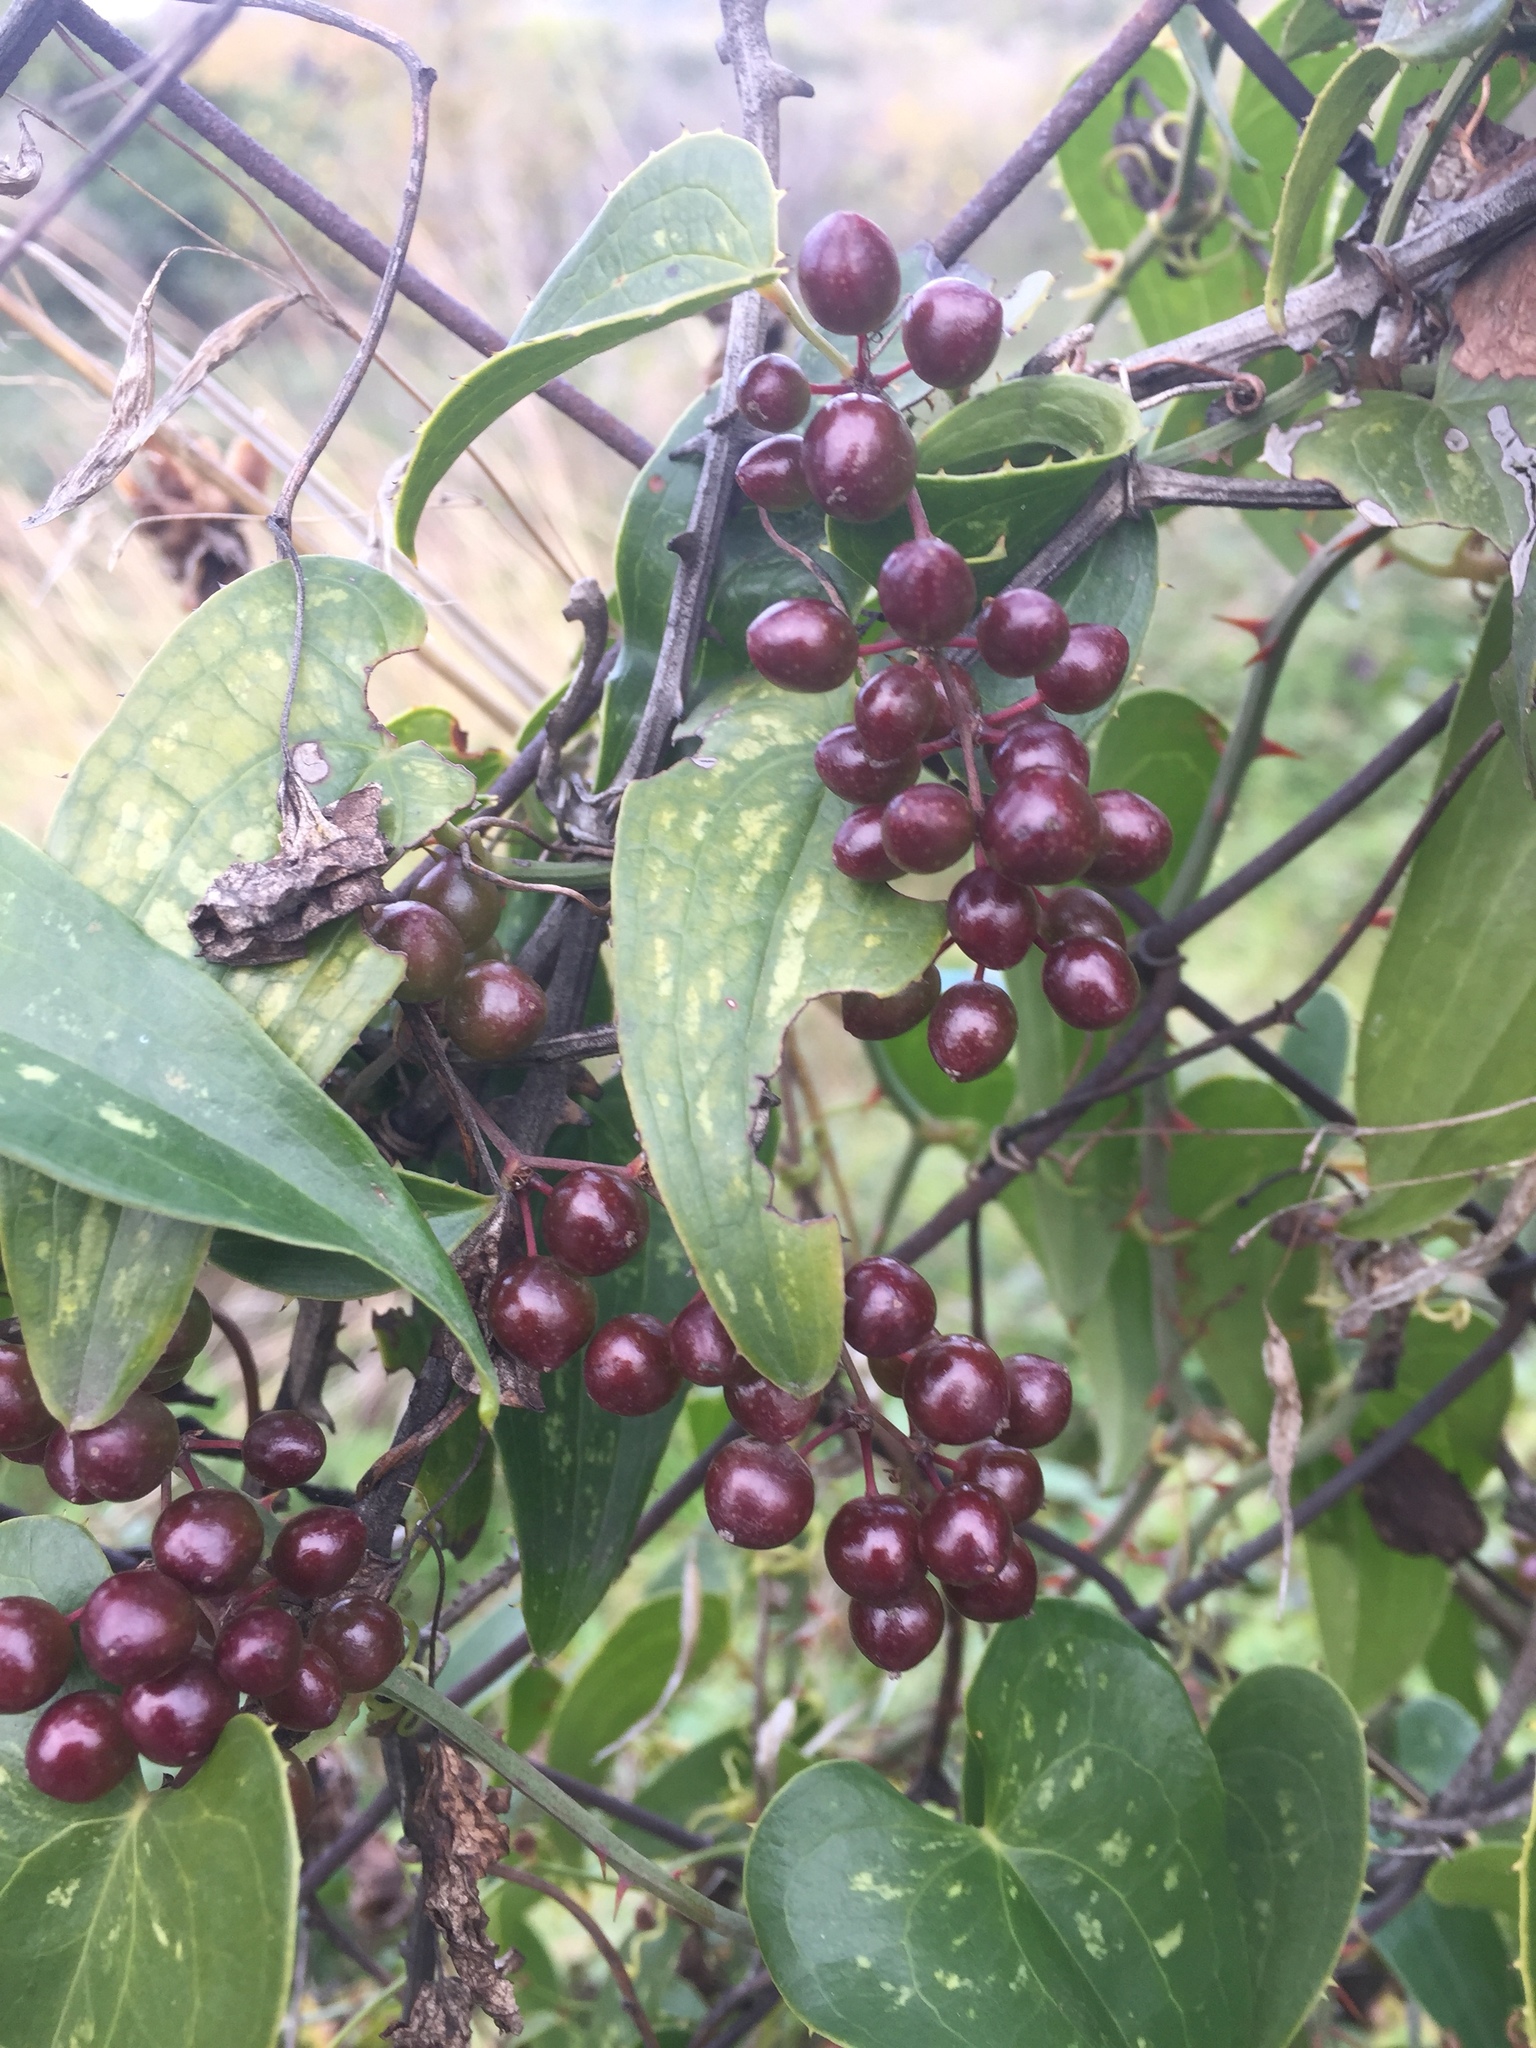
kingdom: Plantae
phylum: Tracheophyta
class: Liliopsida
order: Liliales
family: Smilacaceae
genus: Smilax
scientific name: Smilax aspera
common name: Common smilax
